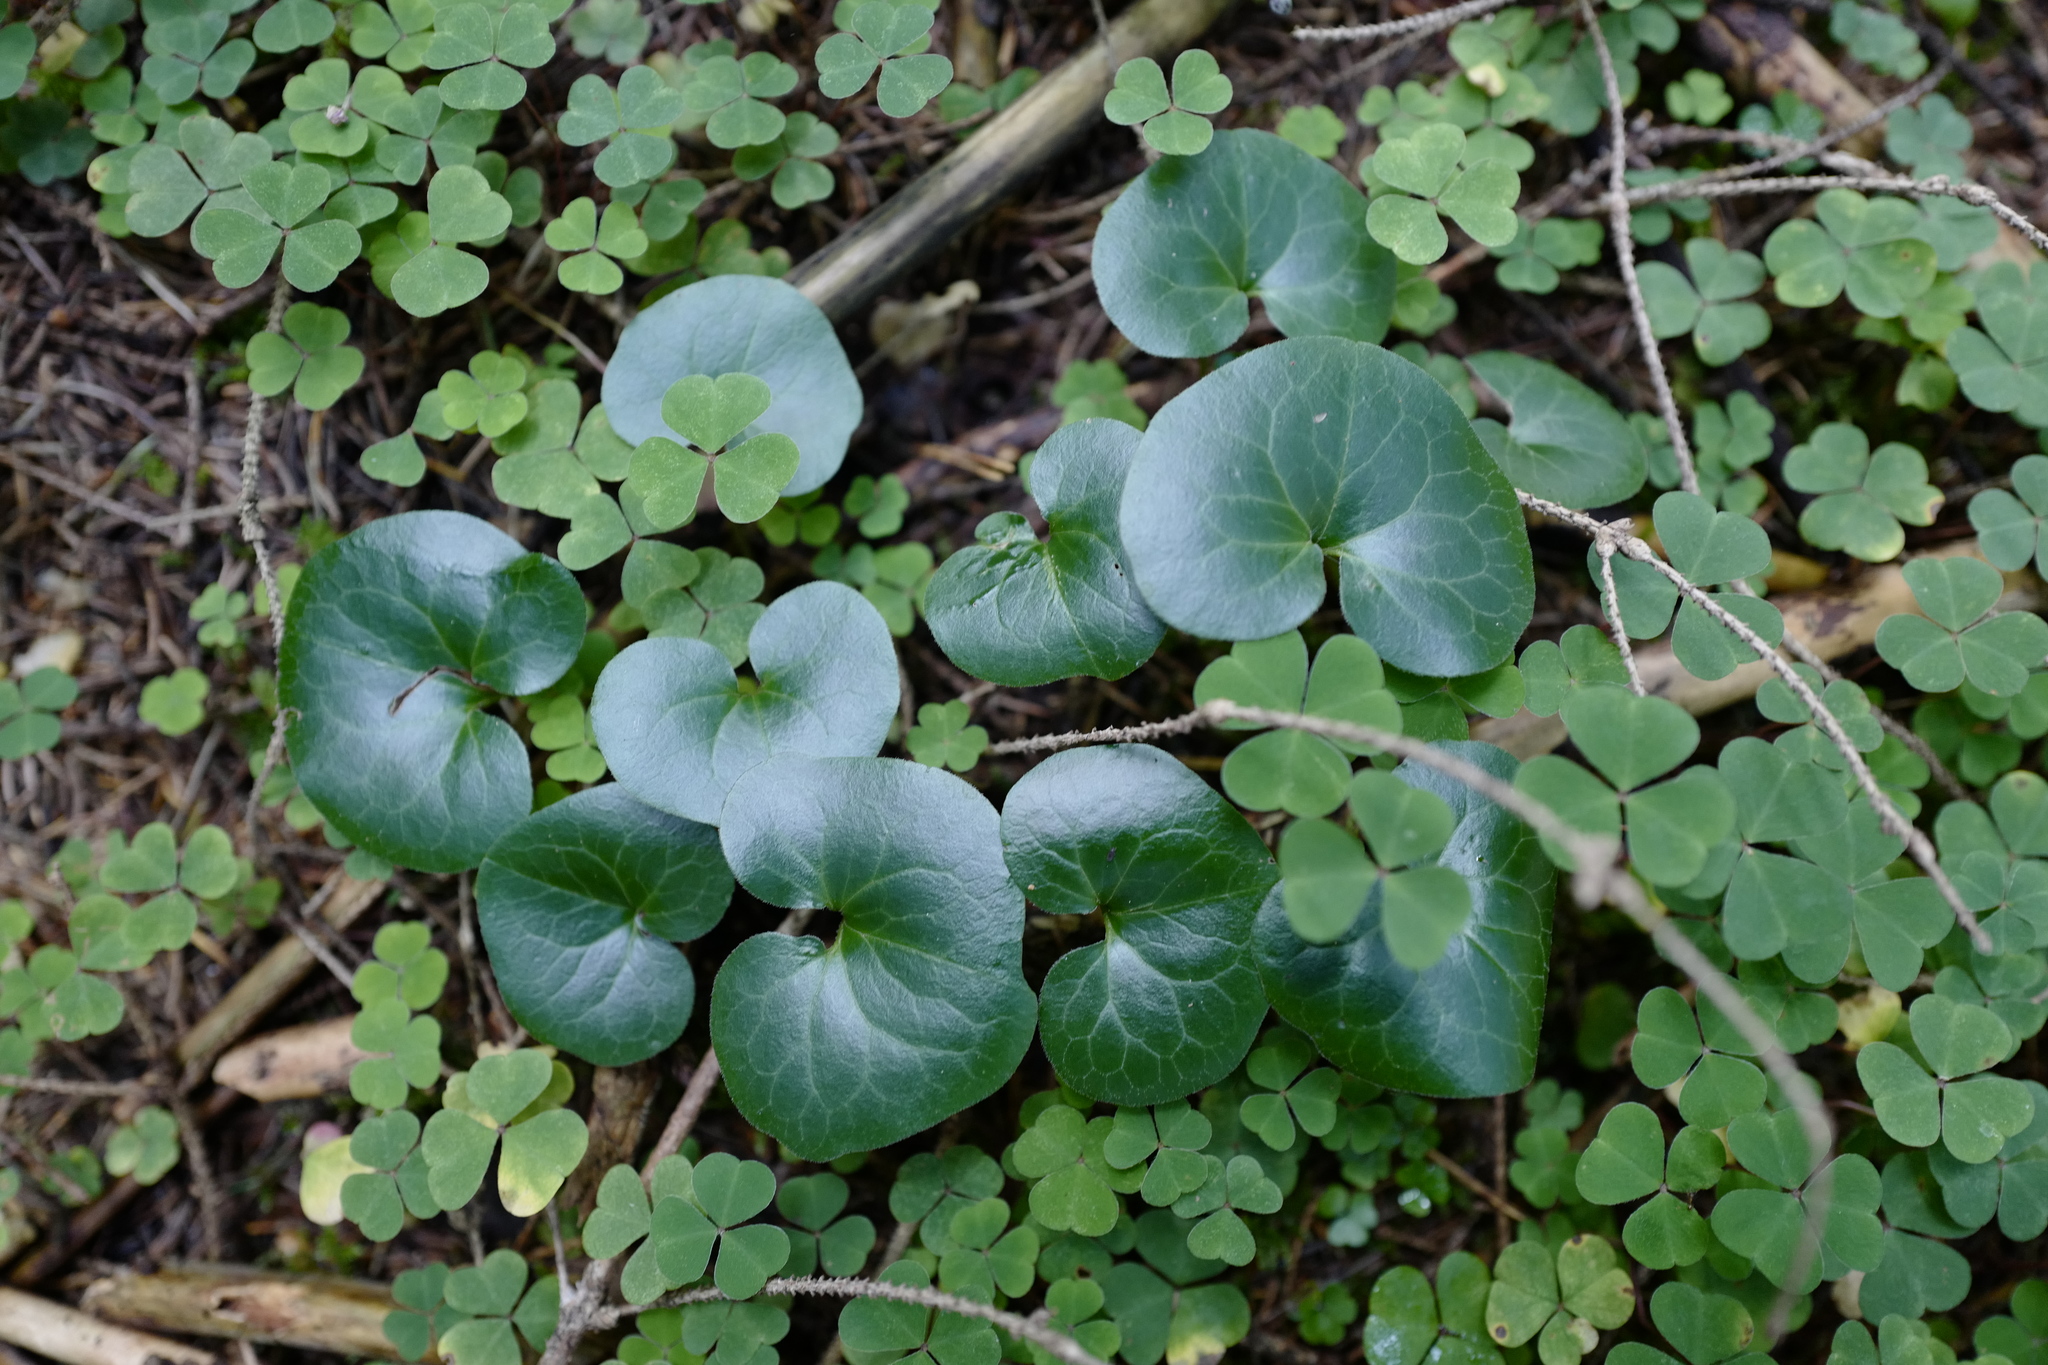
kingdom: Plantae
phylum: Tracheophyta
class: Magnoliopsida
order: Piperales
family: Aristolochiaceae
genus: Asarum
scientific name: Asarum europaeum
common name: Asarabacca
